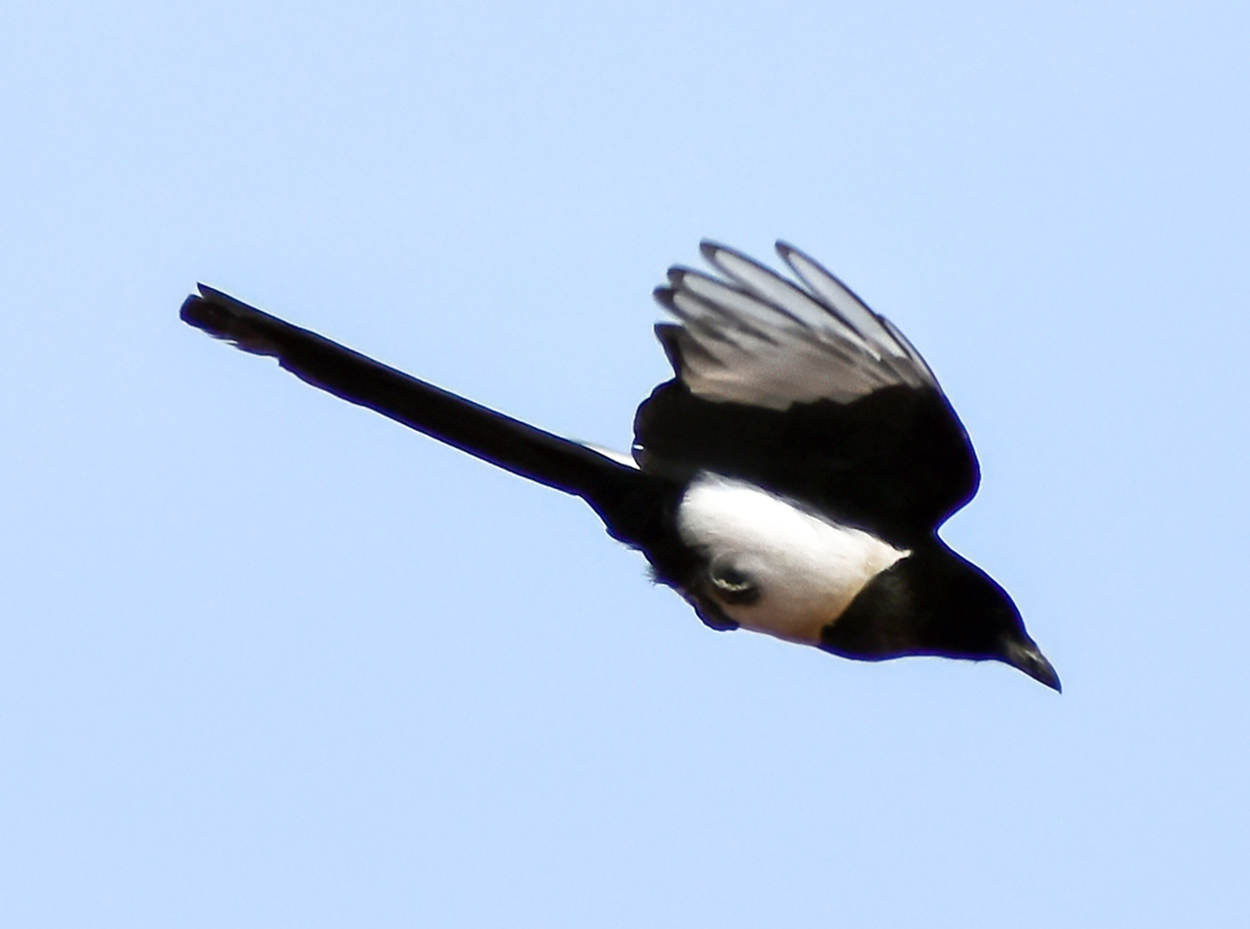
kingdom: Animalia
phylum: Chordata
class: Aves
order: Passeriformes
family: Corvidae
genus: Pica
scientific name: Pica pica
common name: Eurasian magpie
